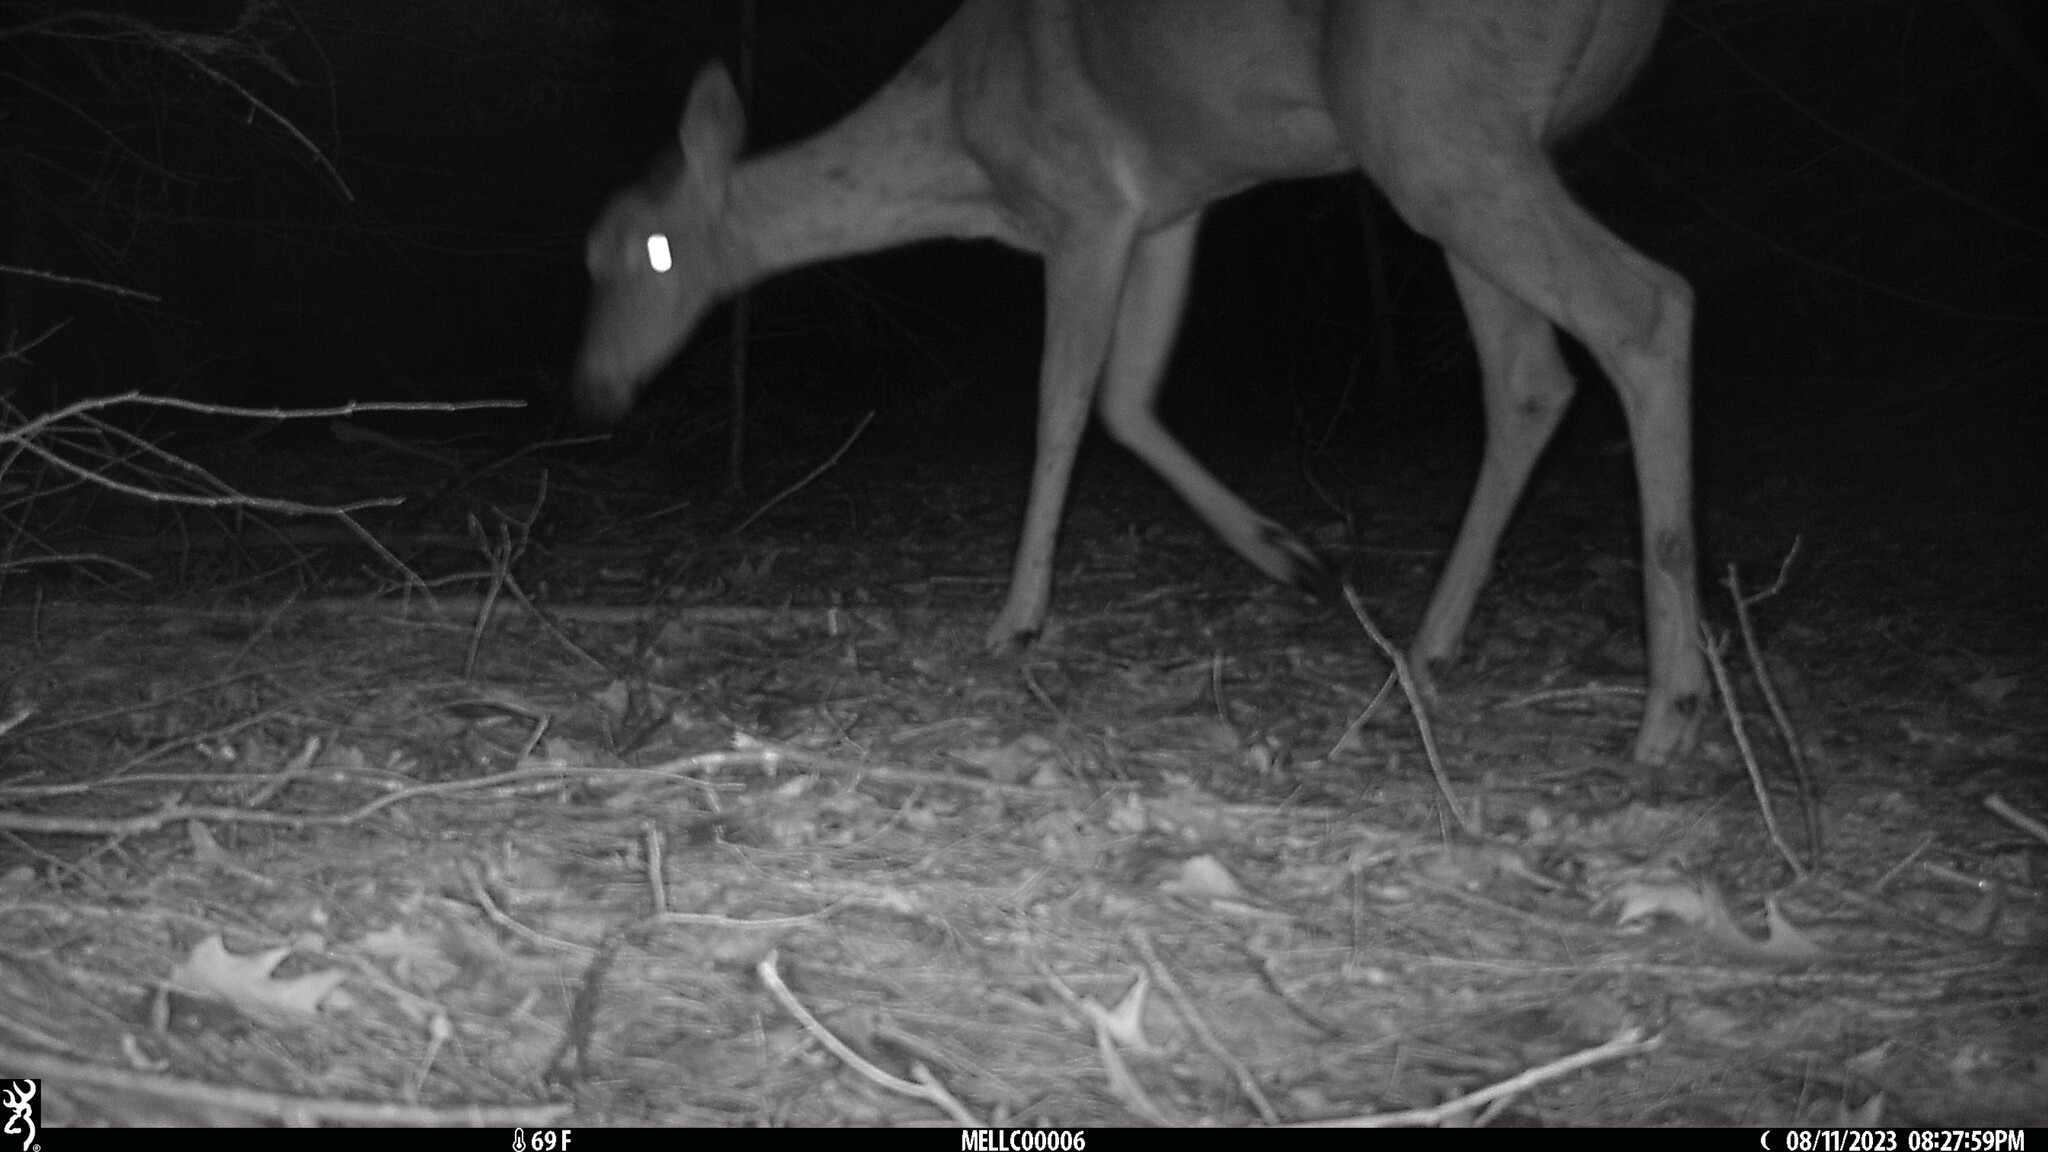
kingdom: Animalia
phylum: Chordata
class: Mammalia
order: Artiodactyla
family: Cervidae
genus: Odocoileus
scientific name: Odocoileus virginianus
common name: White-tailed deer
